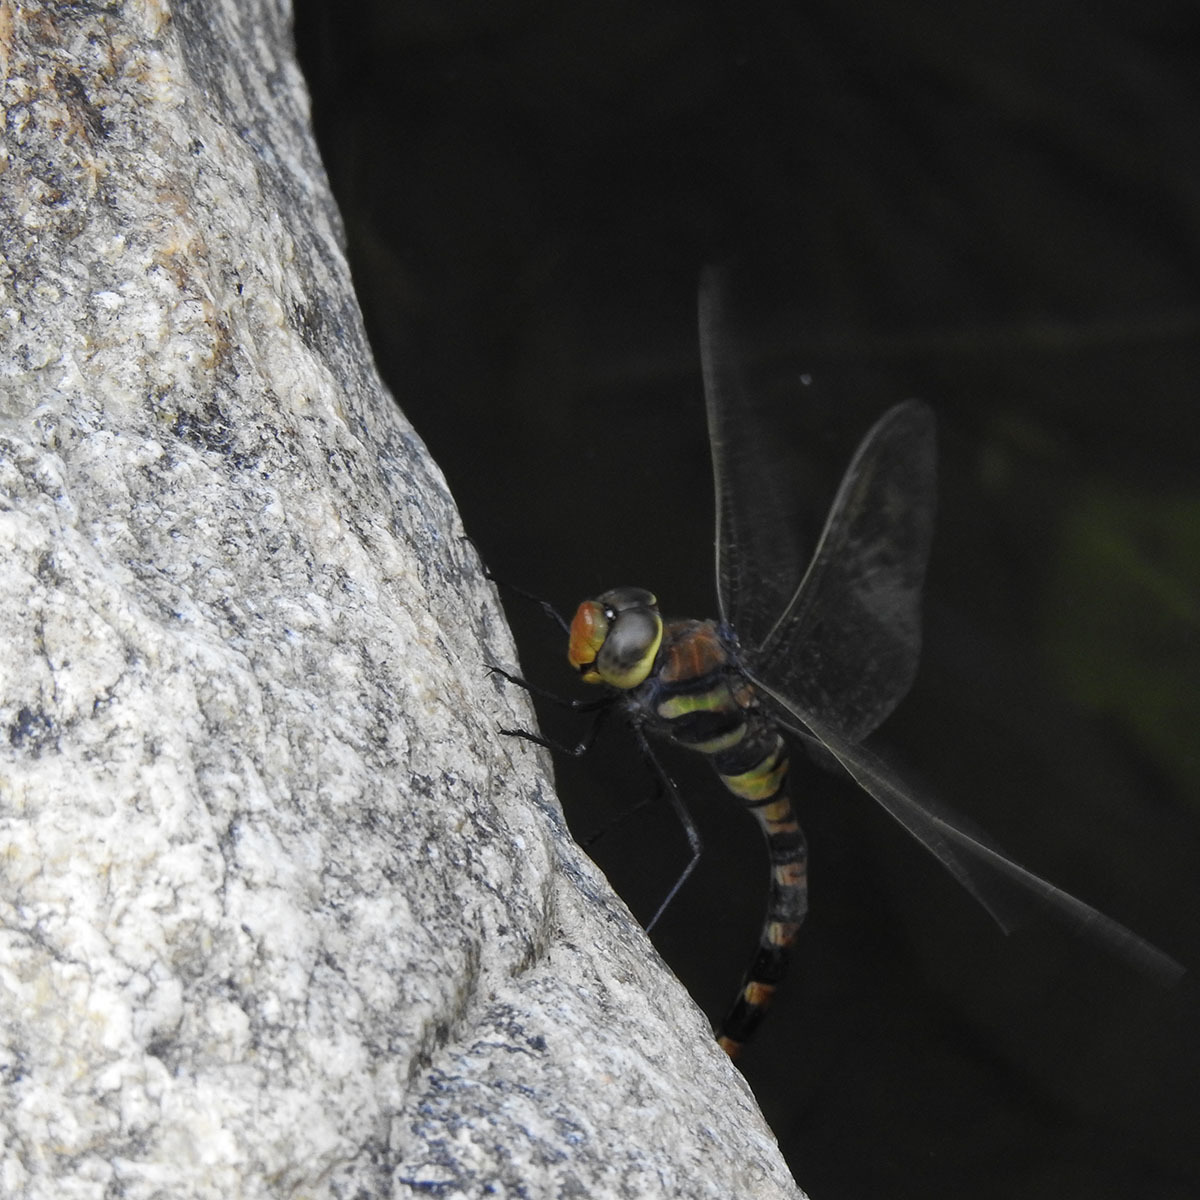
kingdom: Animalia
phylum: Arthropoda
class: Insecta
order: Odonata
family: Aeshnidae
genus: Anax
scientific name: Anax immaculifrons
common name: Magnificent emperor
